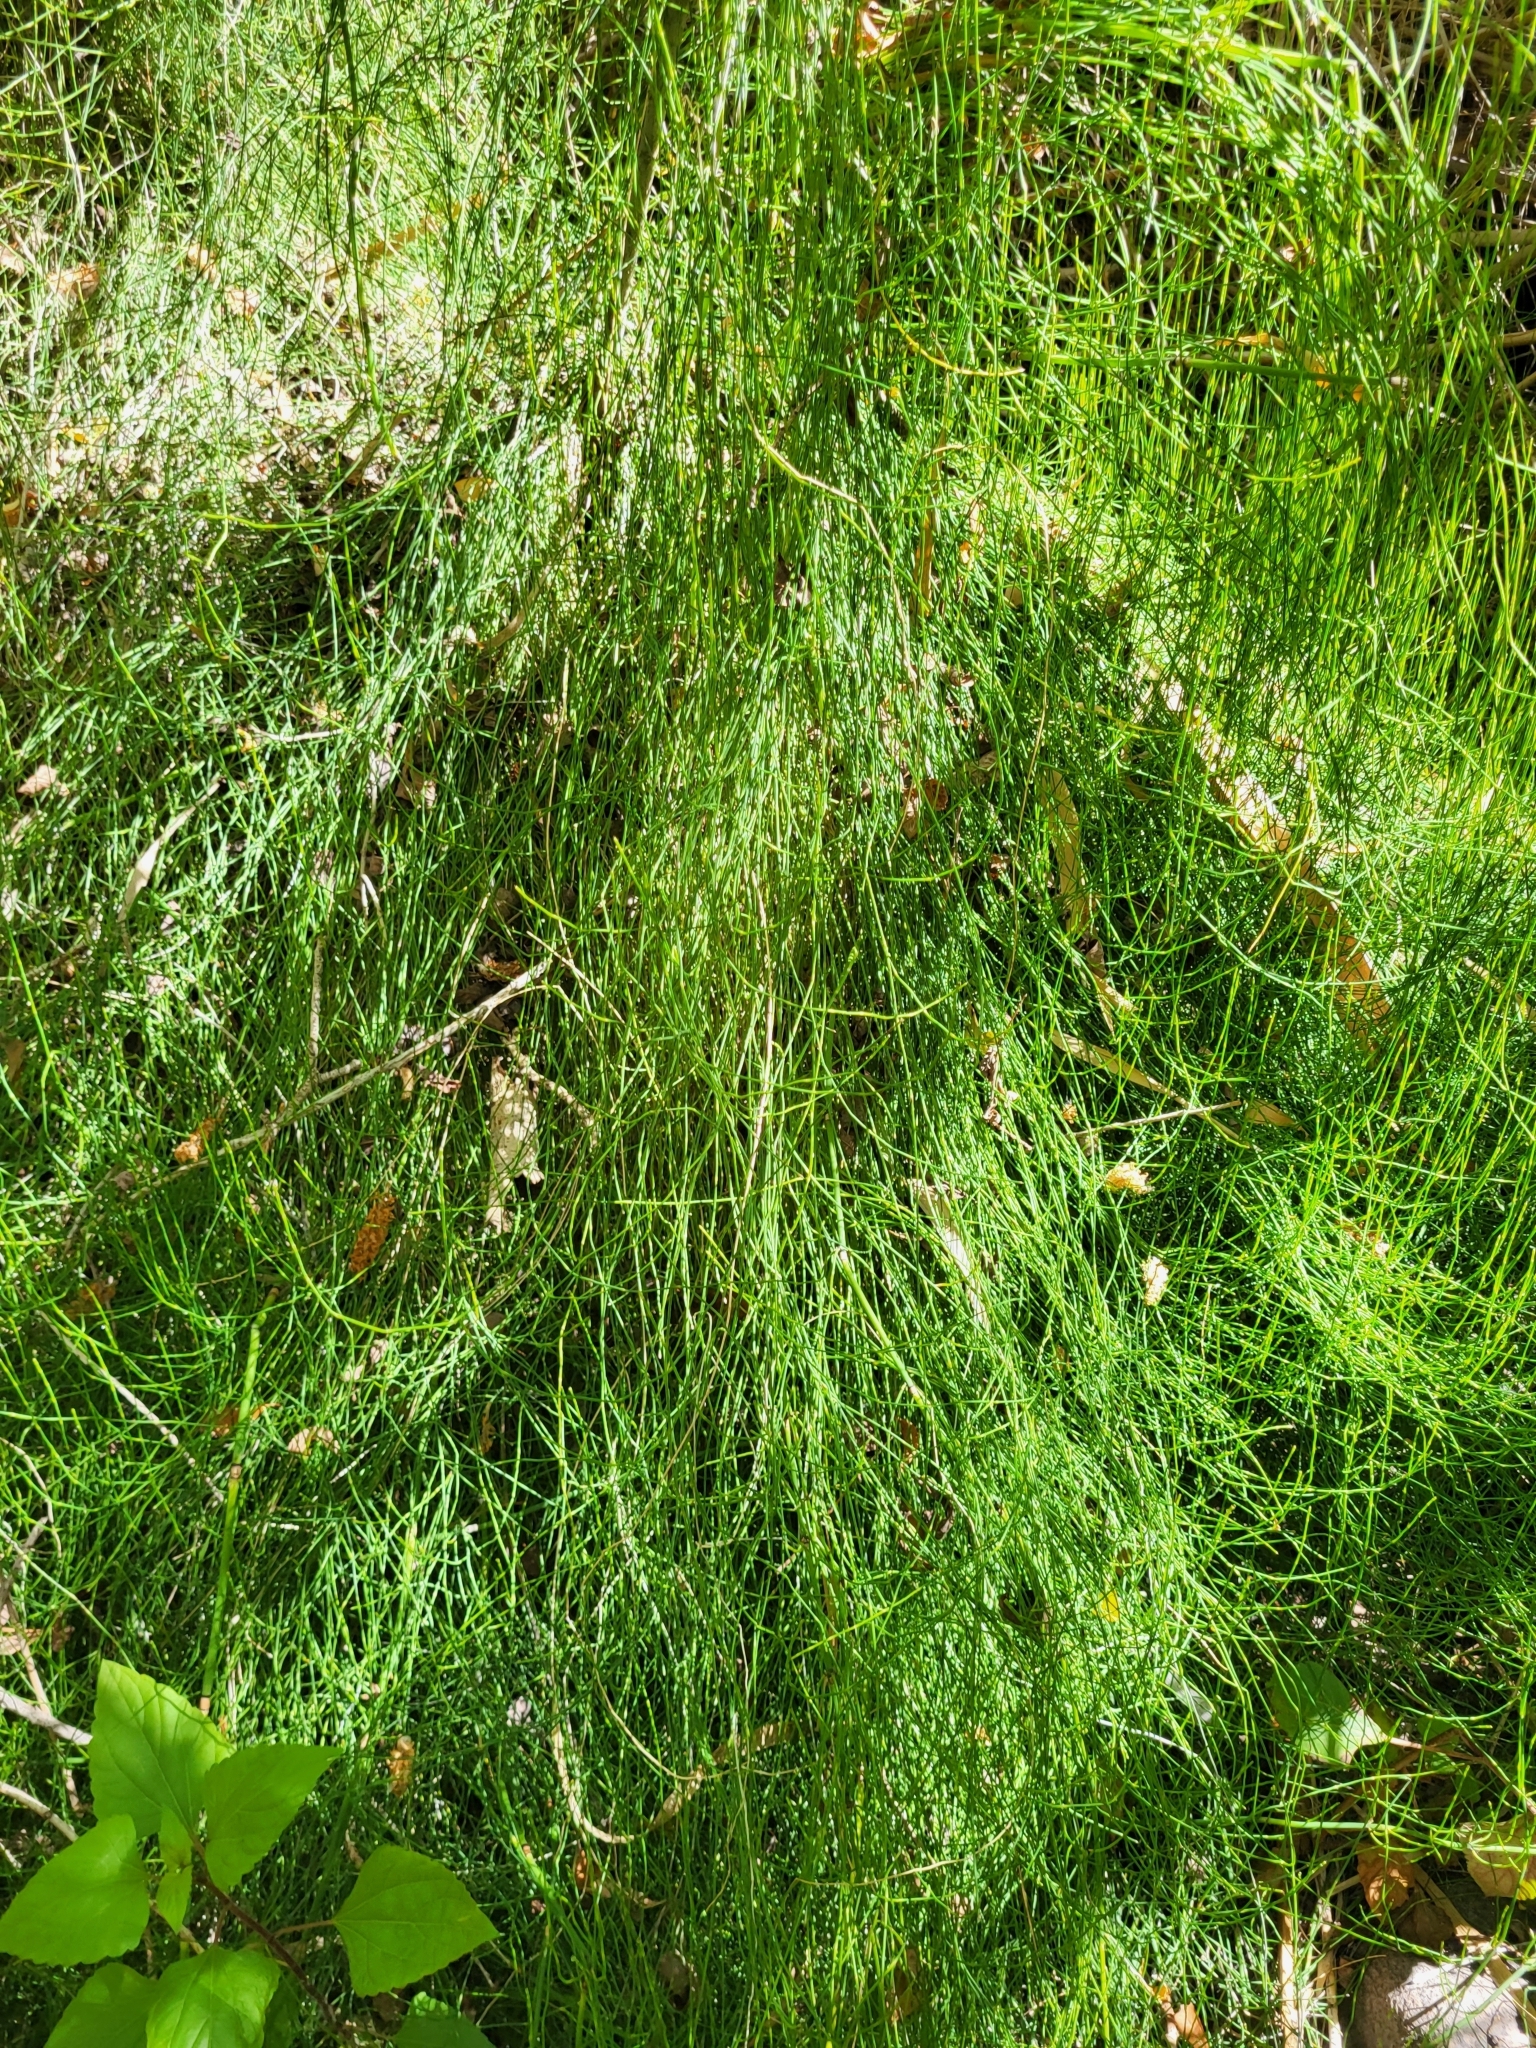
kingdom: Plantae
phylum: Tracheophyta
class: Polypodiopsida
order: Equisetales
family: Equisetaceae
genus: Equisetum
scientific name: Equisetum ramosissimum
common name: Branched horsetail
